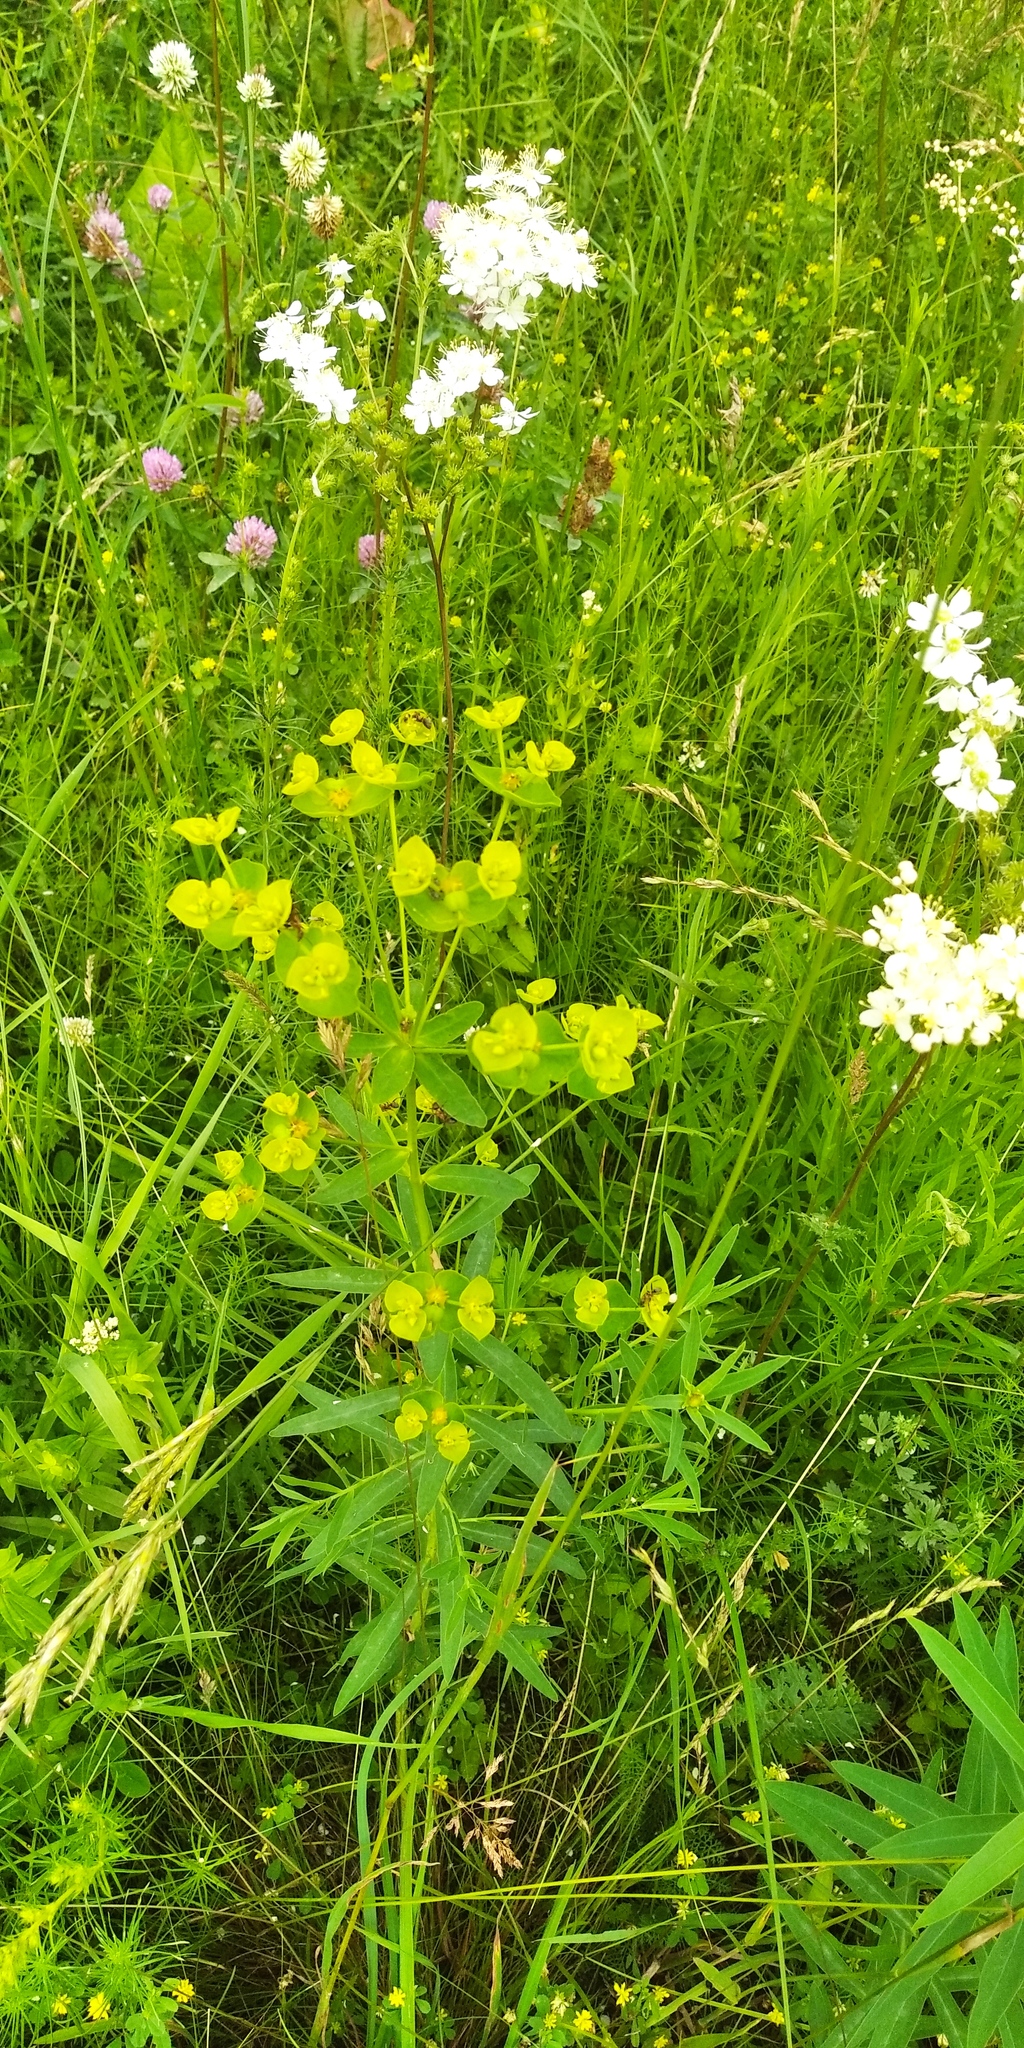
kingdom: Plantae
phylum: Tracheophyta
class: Magnoliopsida
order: Malpighiales
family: Euphorbiaceae
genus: Euphorbia
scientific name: Euphorbia virgata
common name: Leafy spurge
